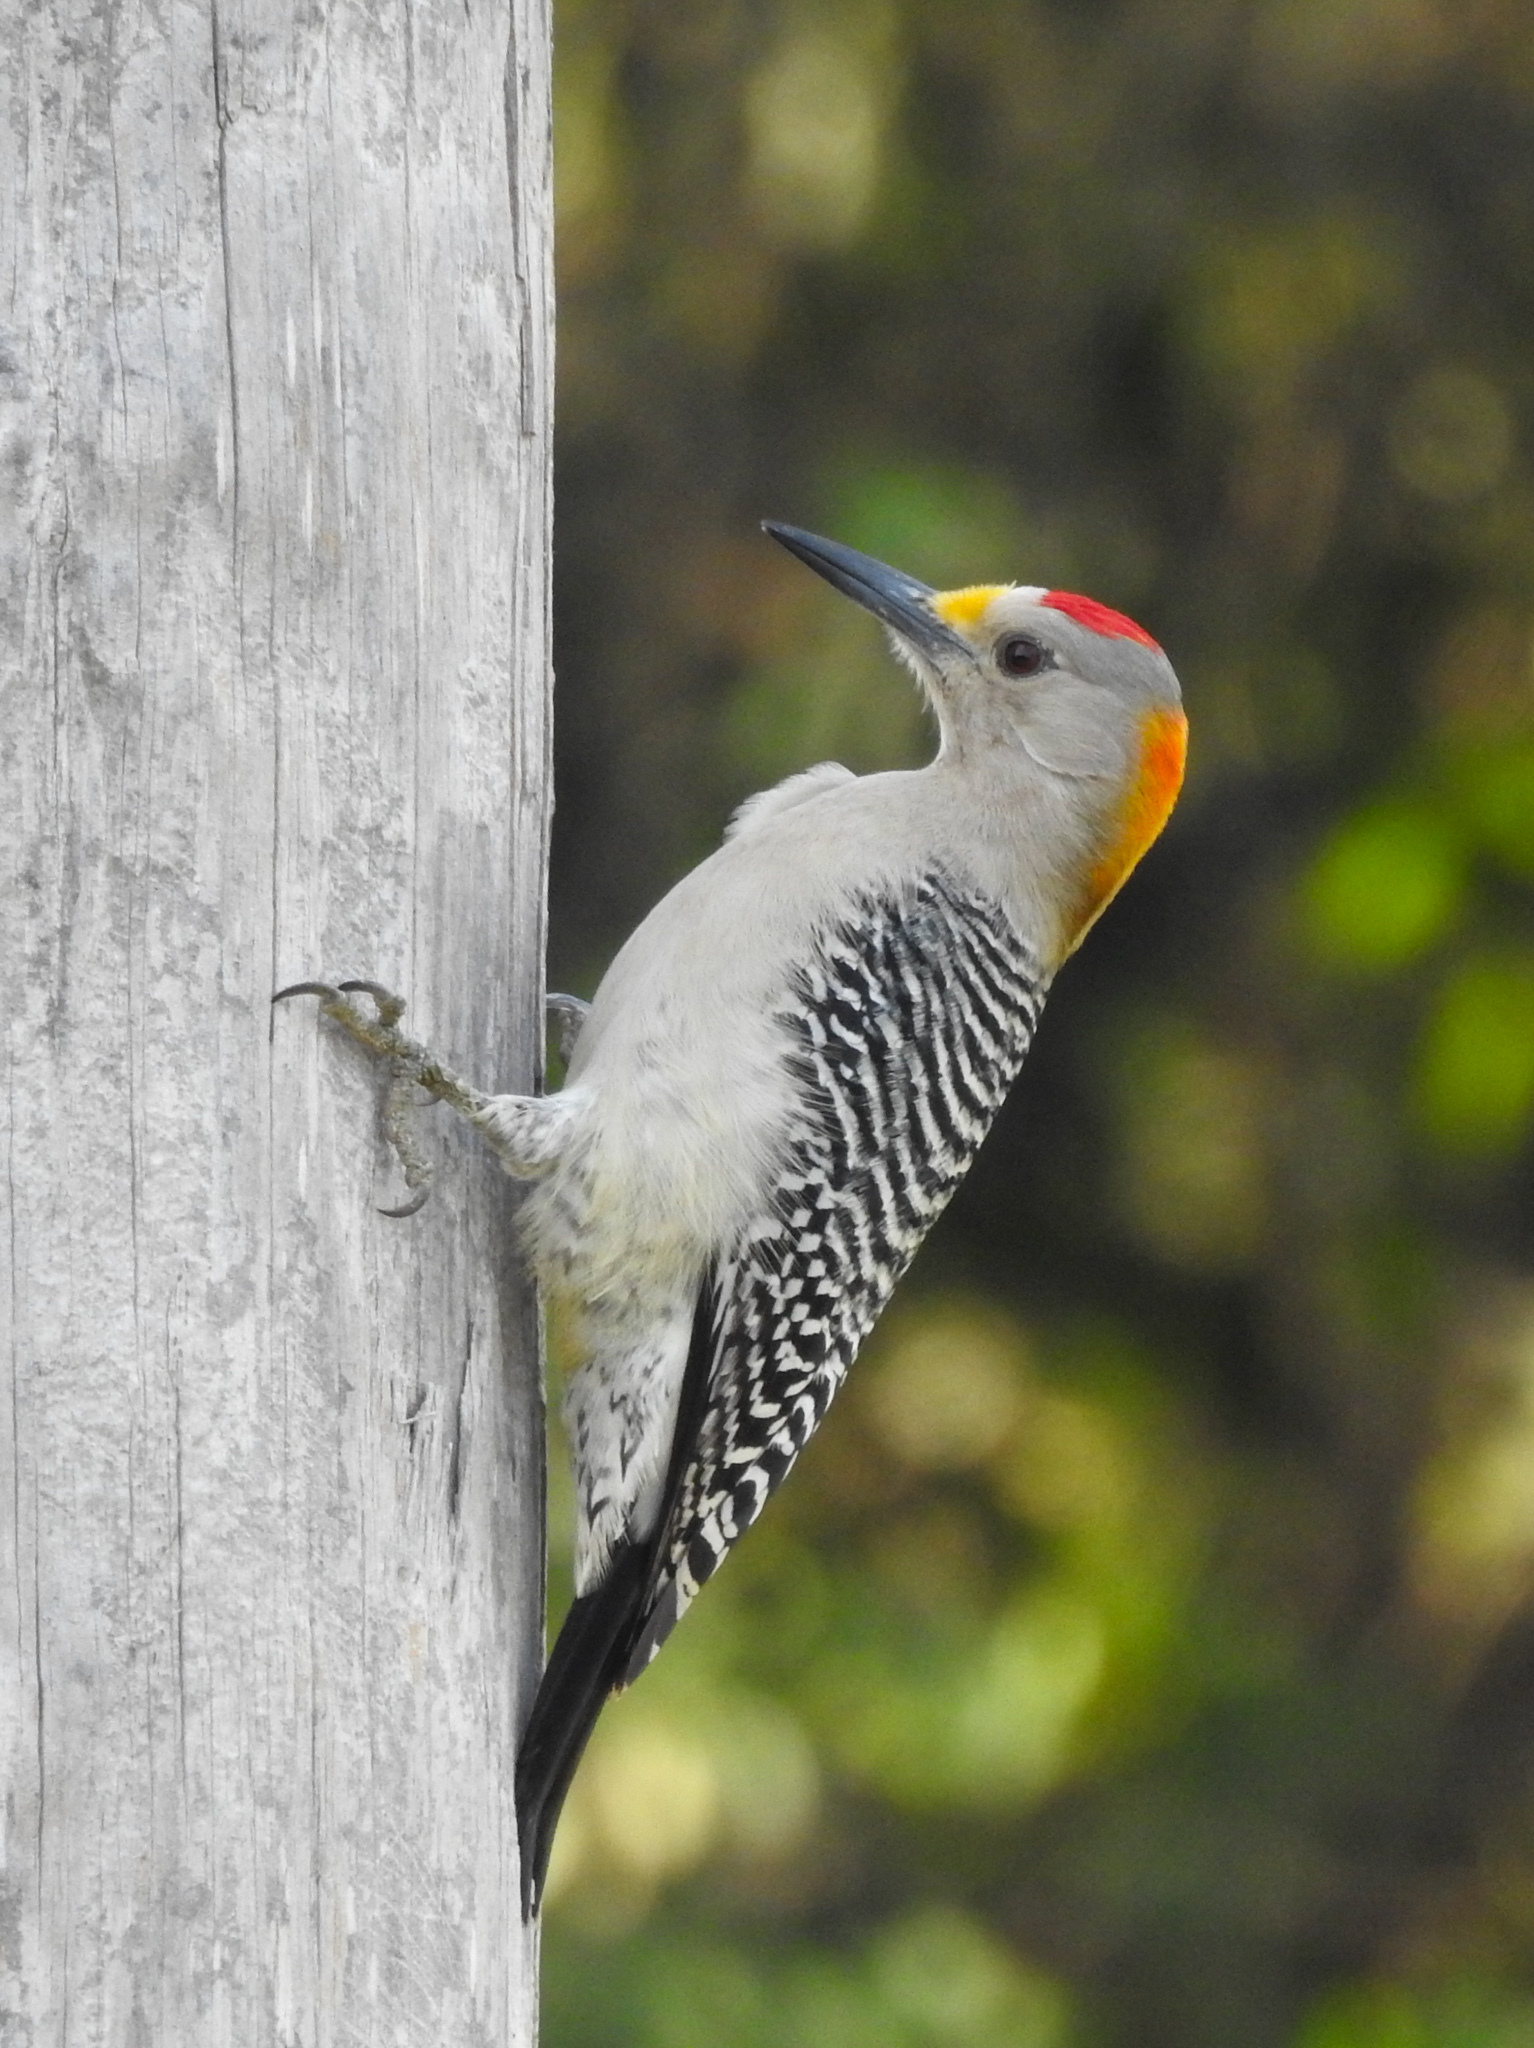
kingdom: Animalia
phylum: Chordata
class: Aves
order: Piciformes
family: Picidae
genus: Melanerpes
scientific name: Melanerpes aurifrons
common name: Golden-fronted woodpecker
